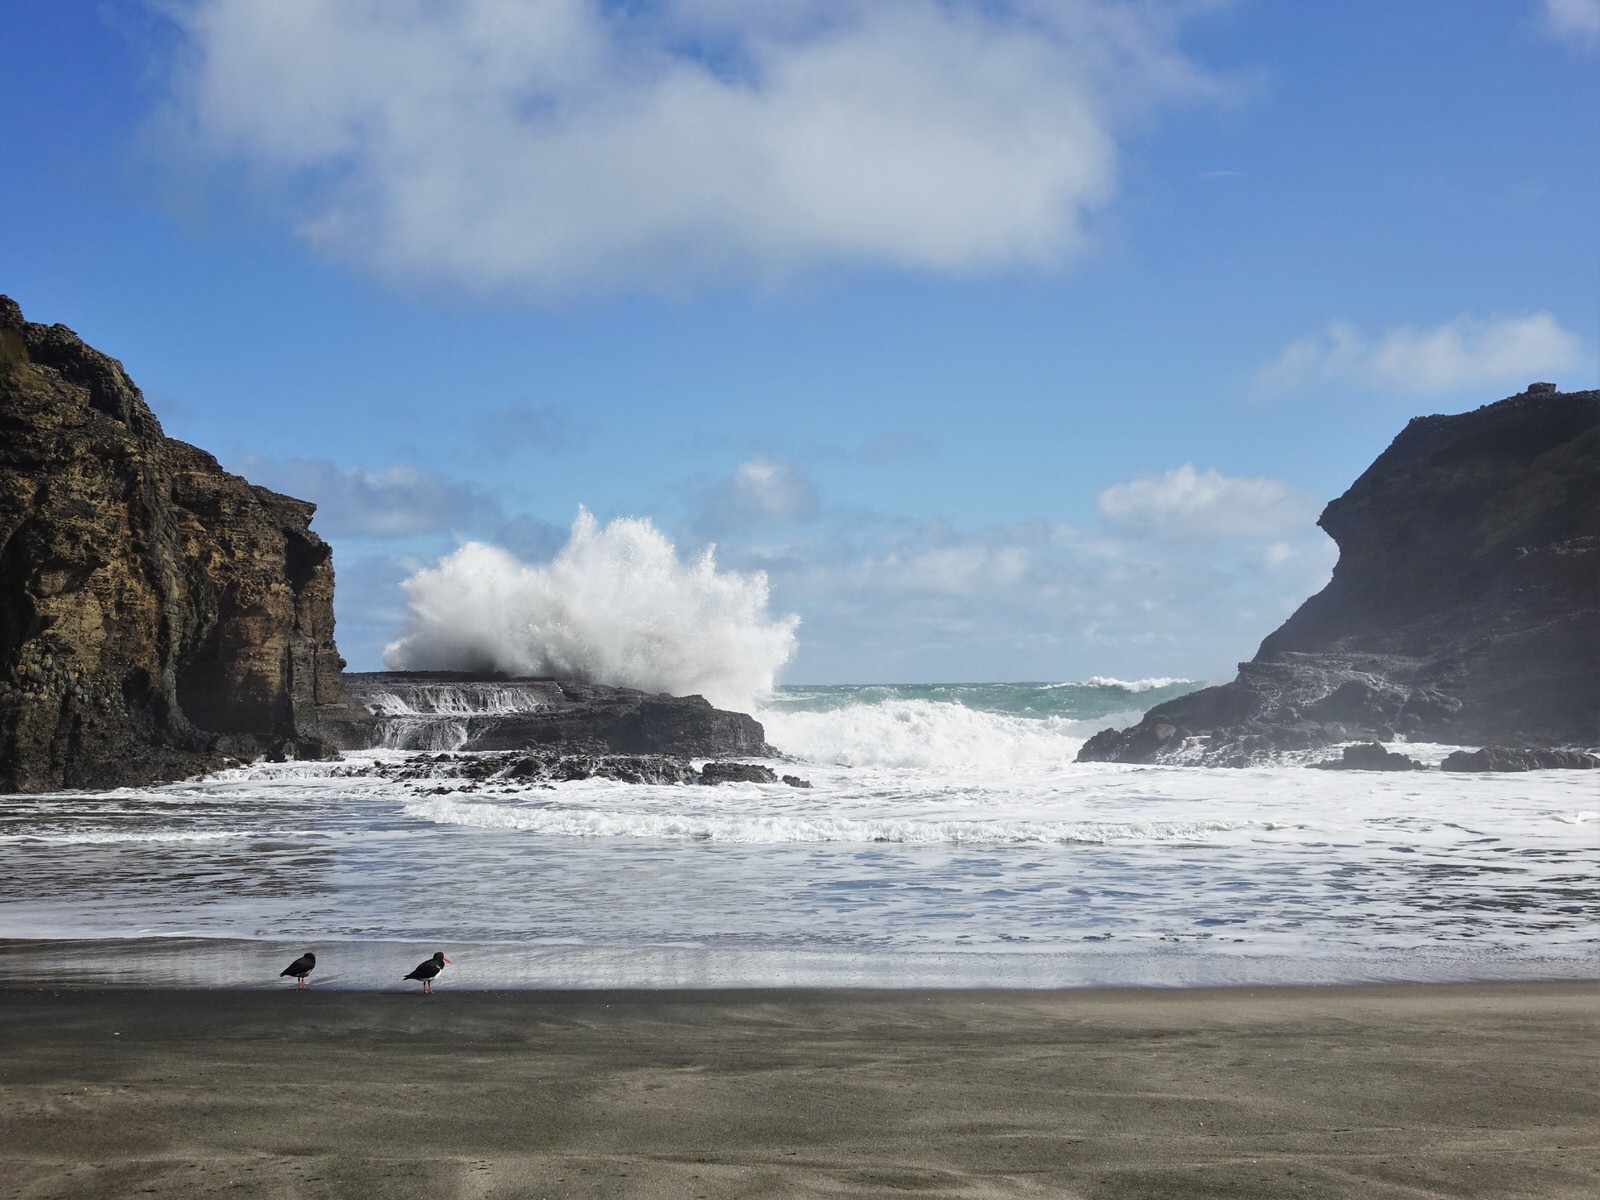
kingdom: Animalia
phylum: Chordata
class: Aves
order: Charadriiformes
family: Haematopodidae
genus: Haematopus
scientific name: Haematopus unicolor
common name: Variable oystercatcher
